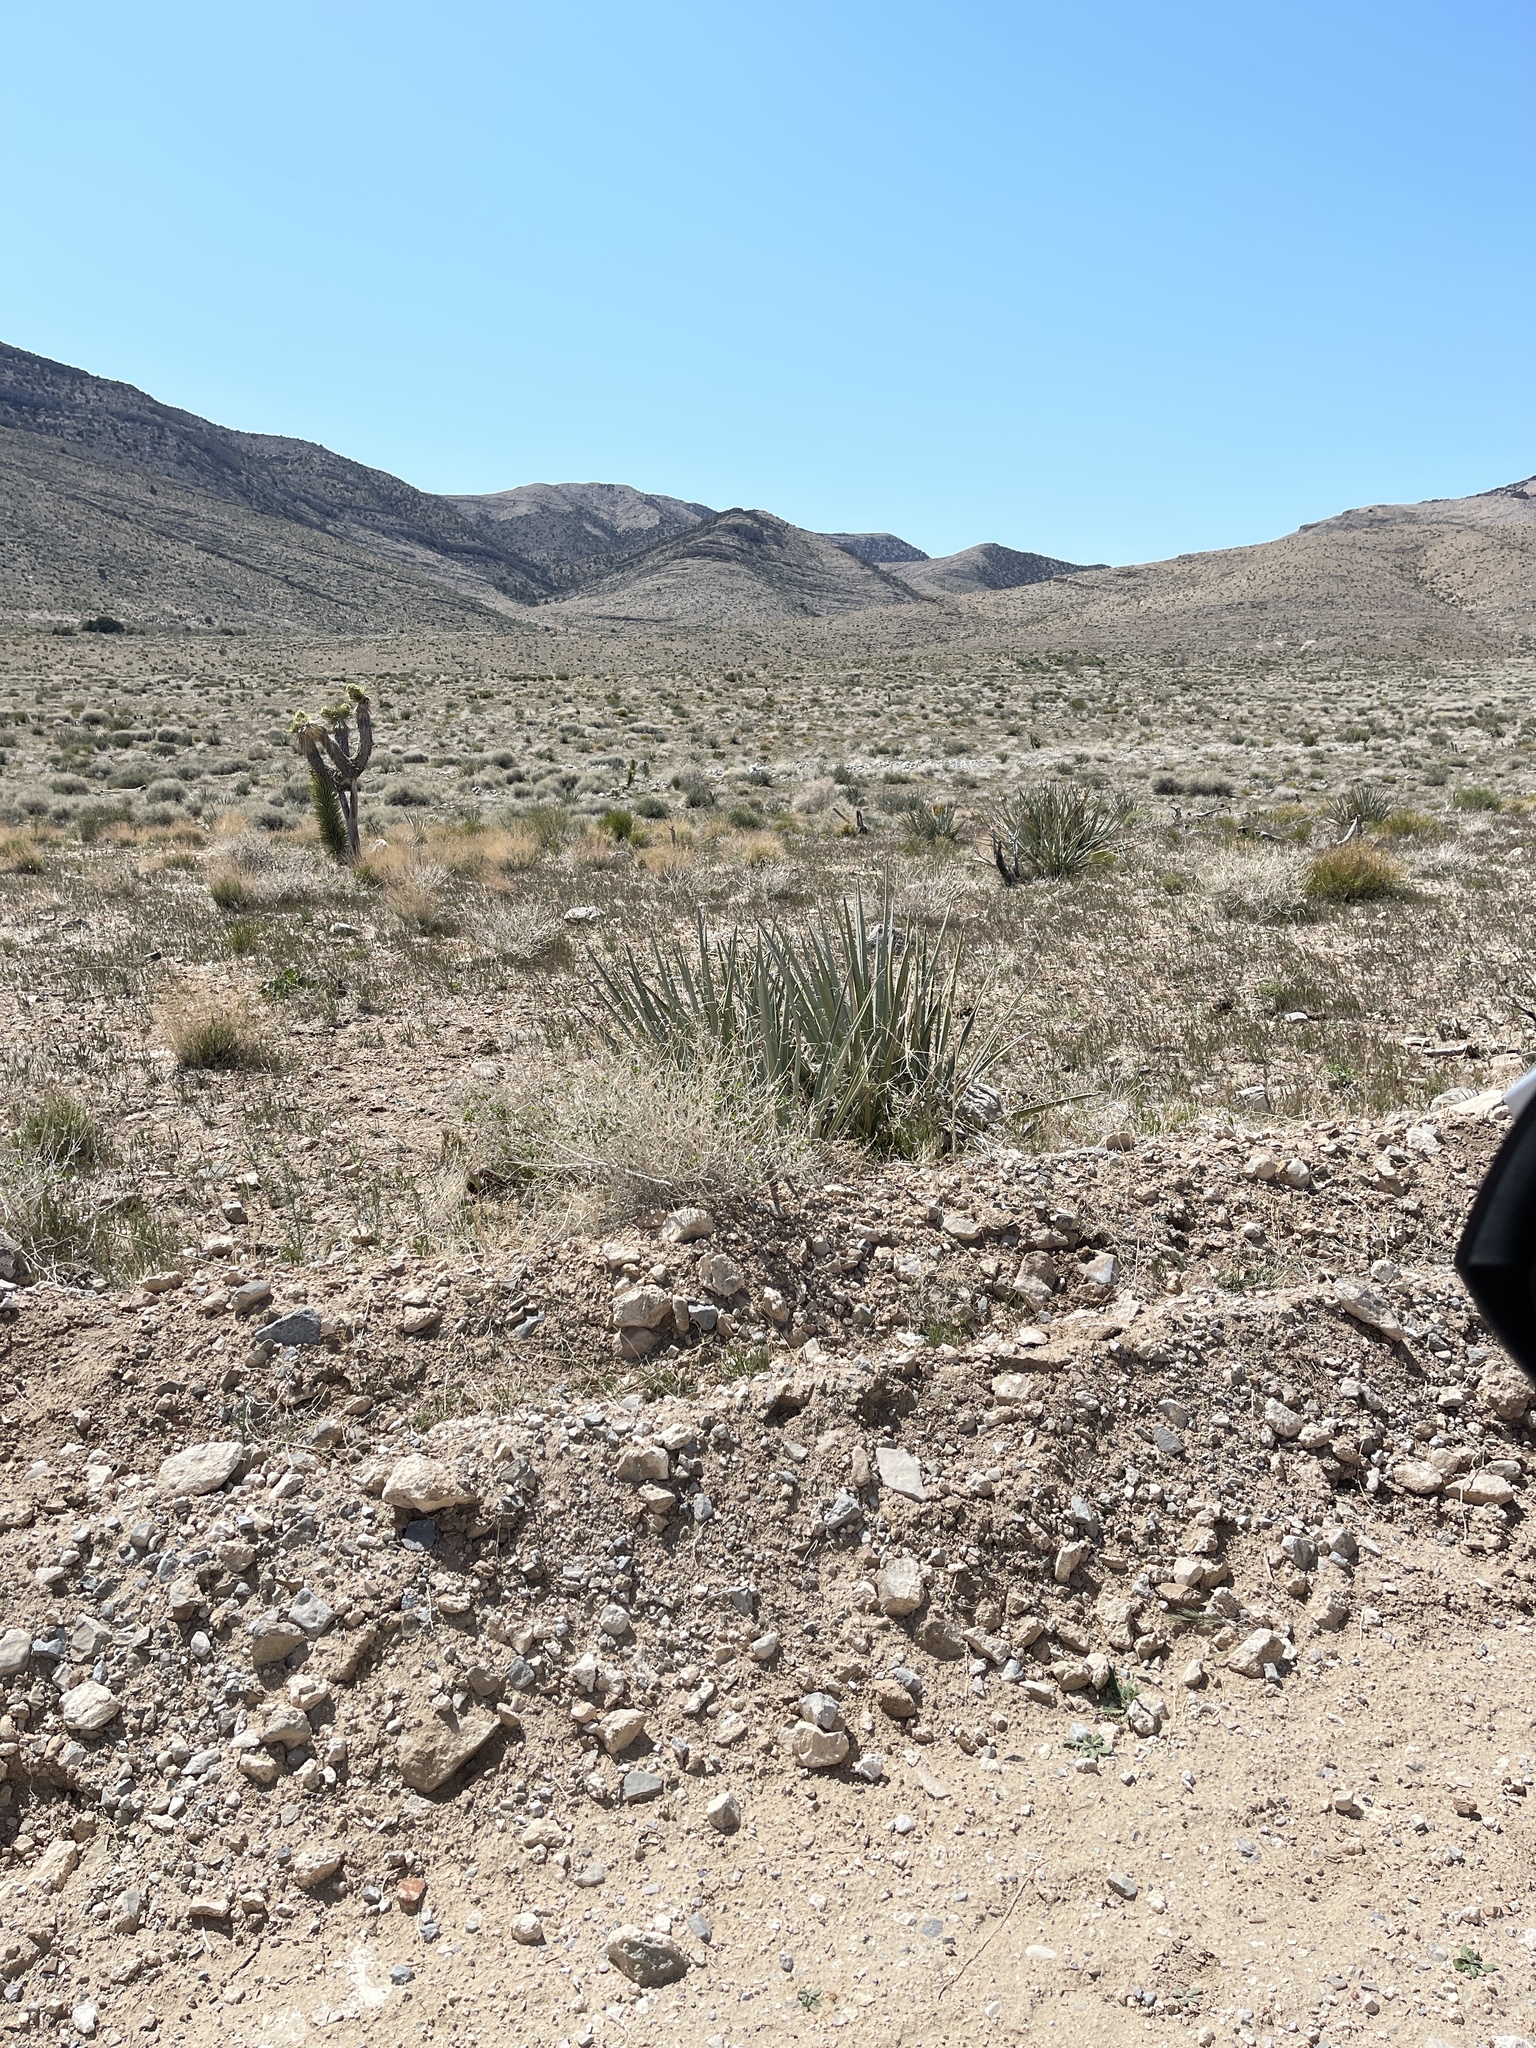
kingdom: Plantae
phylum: Tracheophyta
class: Liliopsida
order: Asparagales
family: Asparagaceae
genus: Yucca
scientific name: Yucca baccata
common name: Banana yucca
